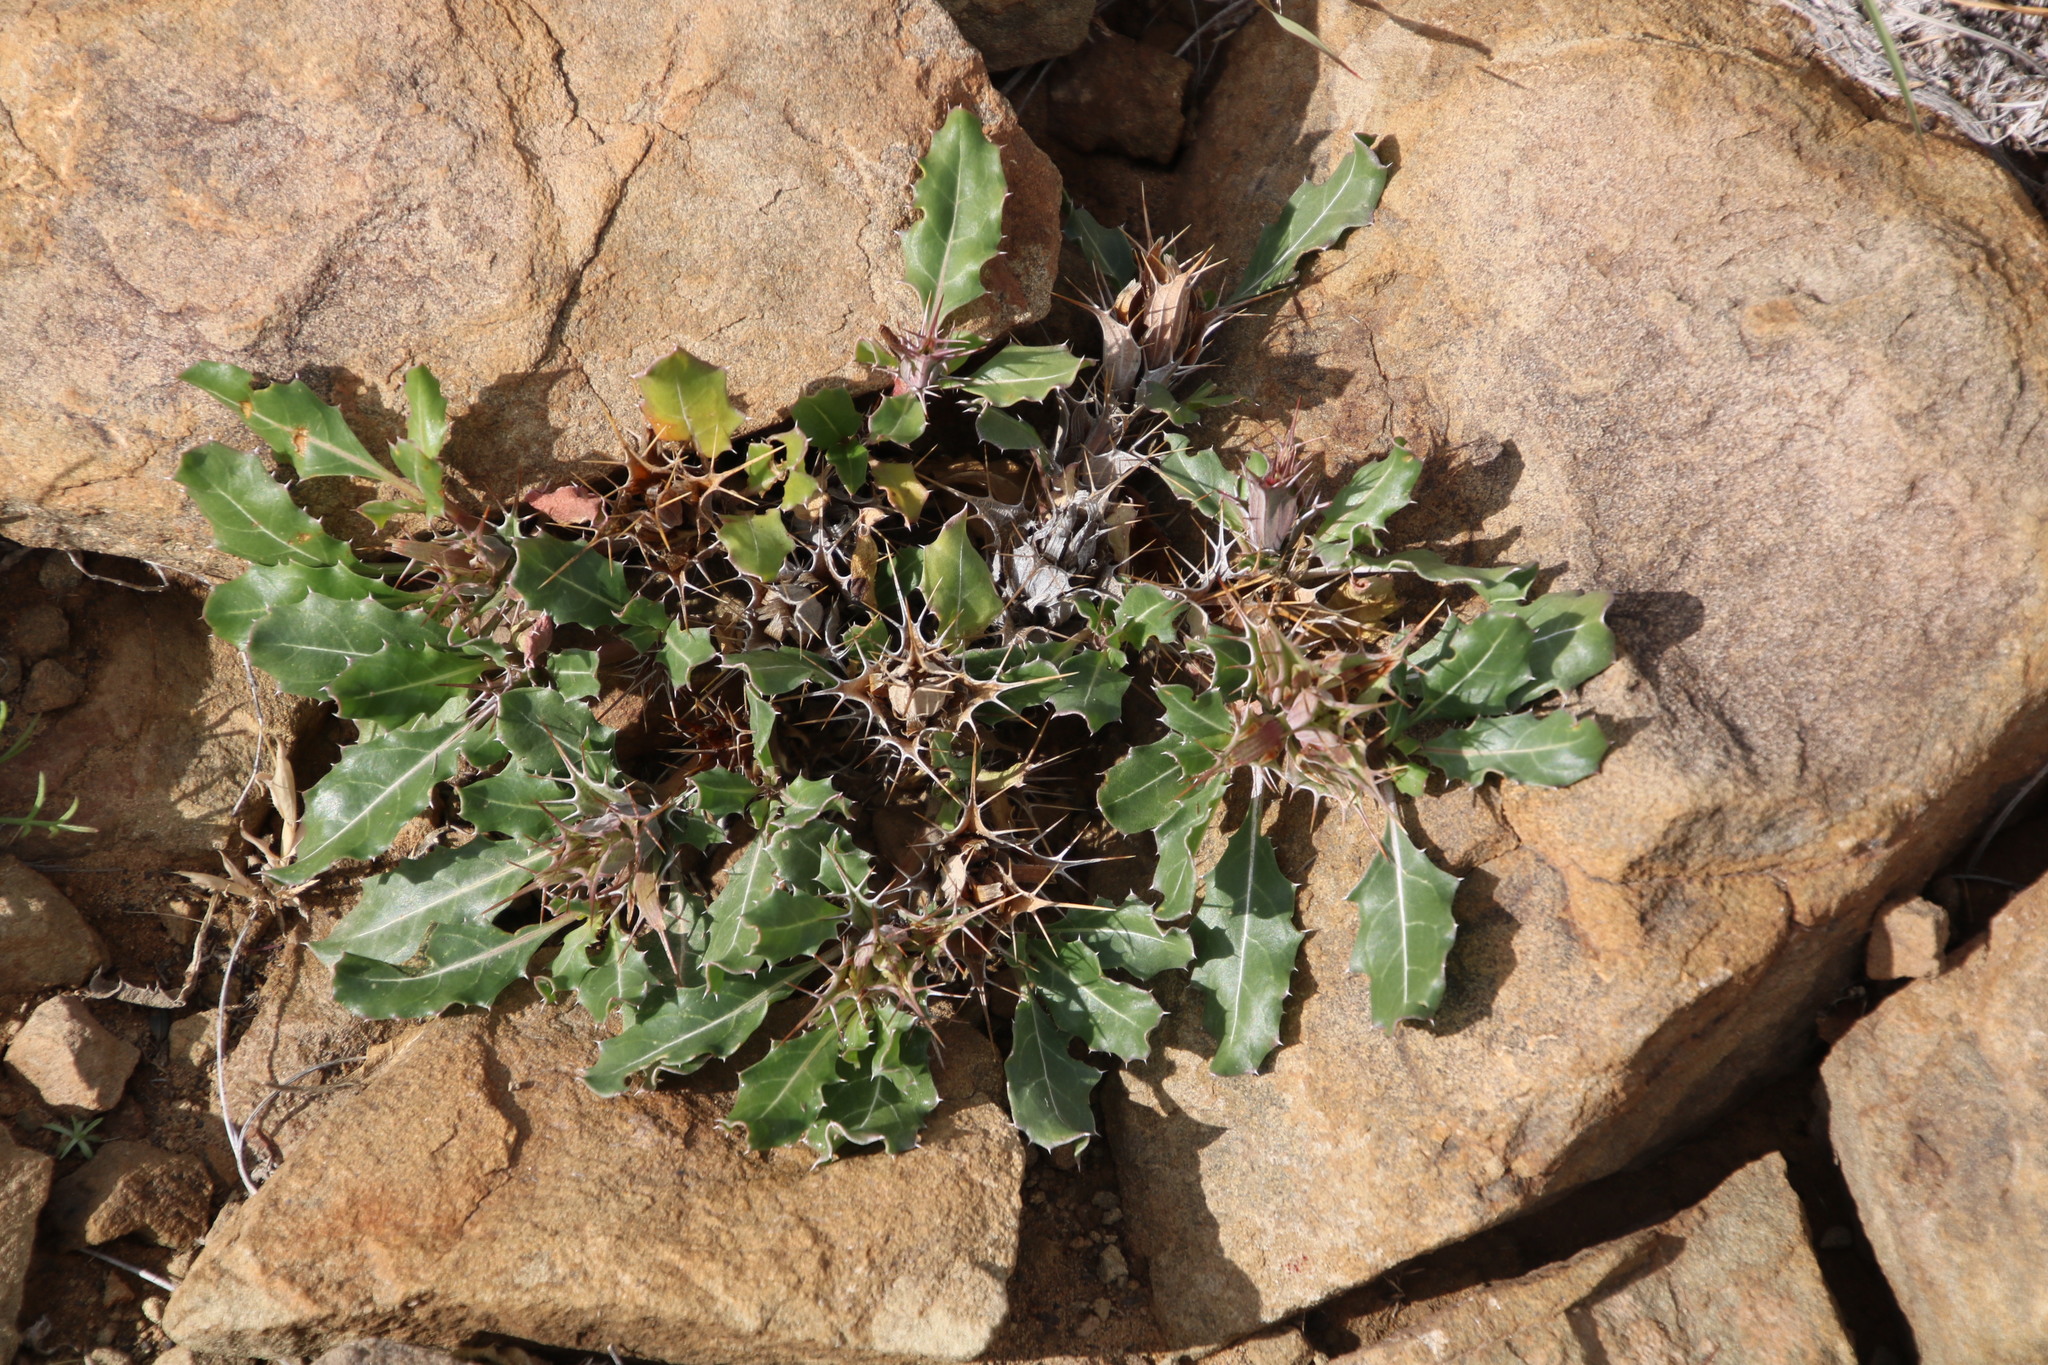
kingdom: Plantae
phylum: Tracheophyta
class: Magnoliopsida
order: Lamiales
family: Acanthaceae
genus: Blepharis
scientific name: Blepharis mitrata
